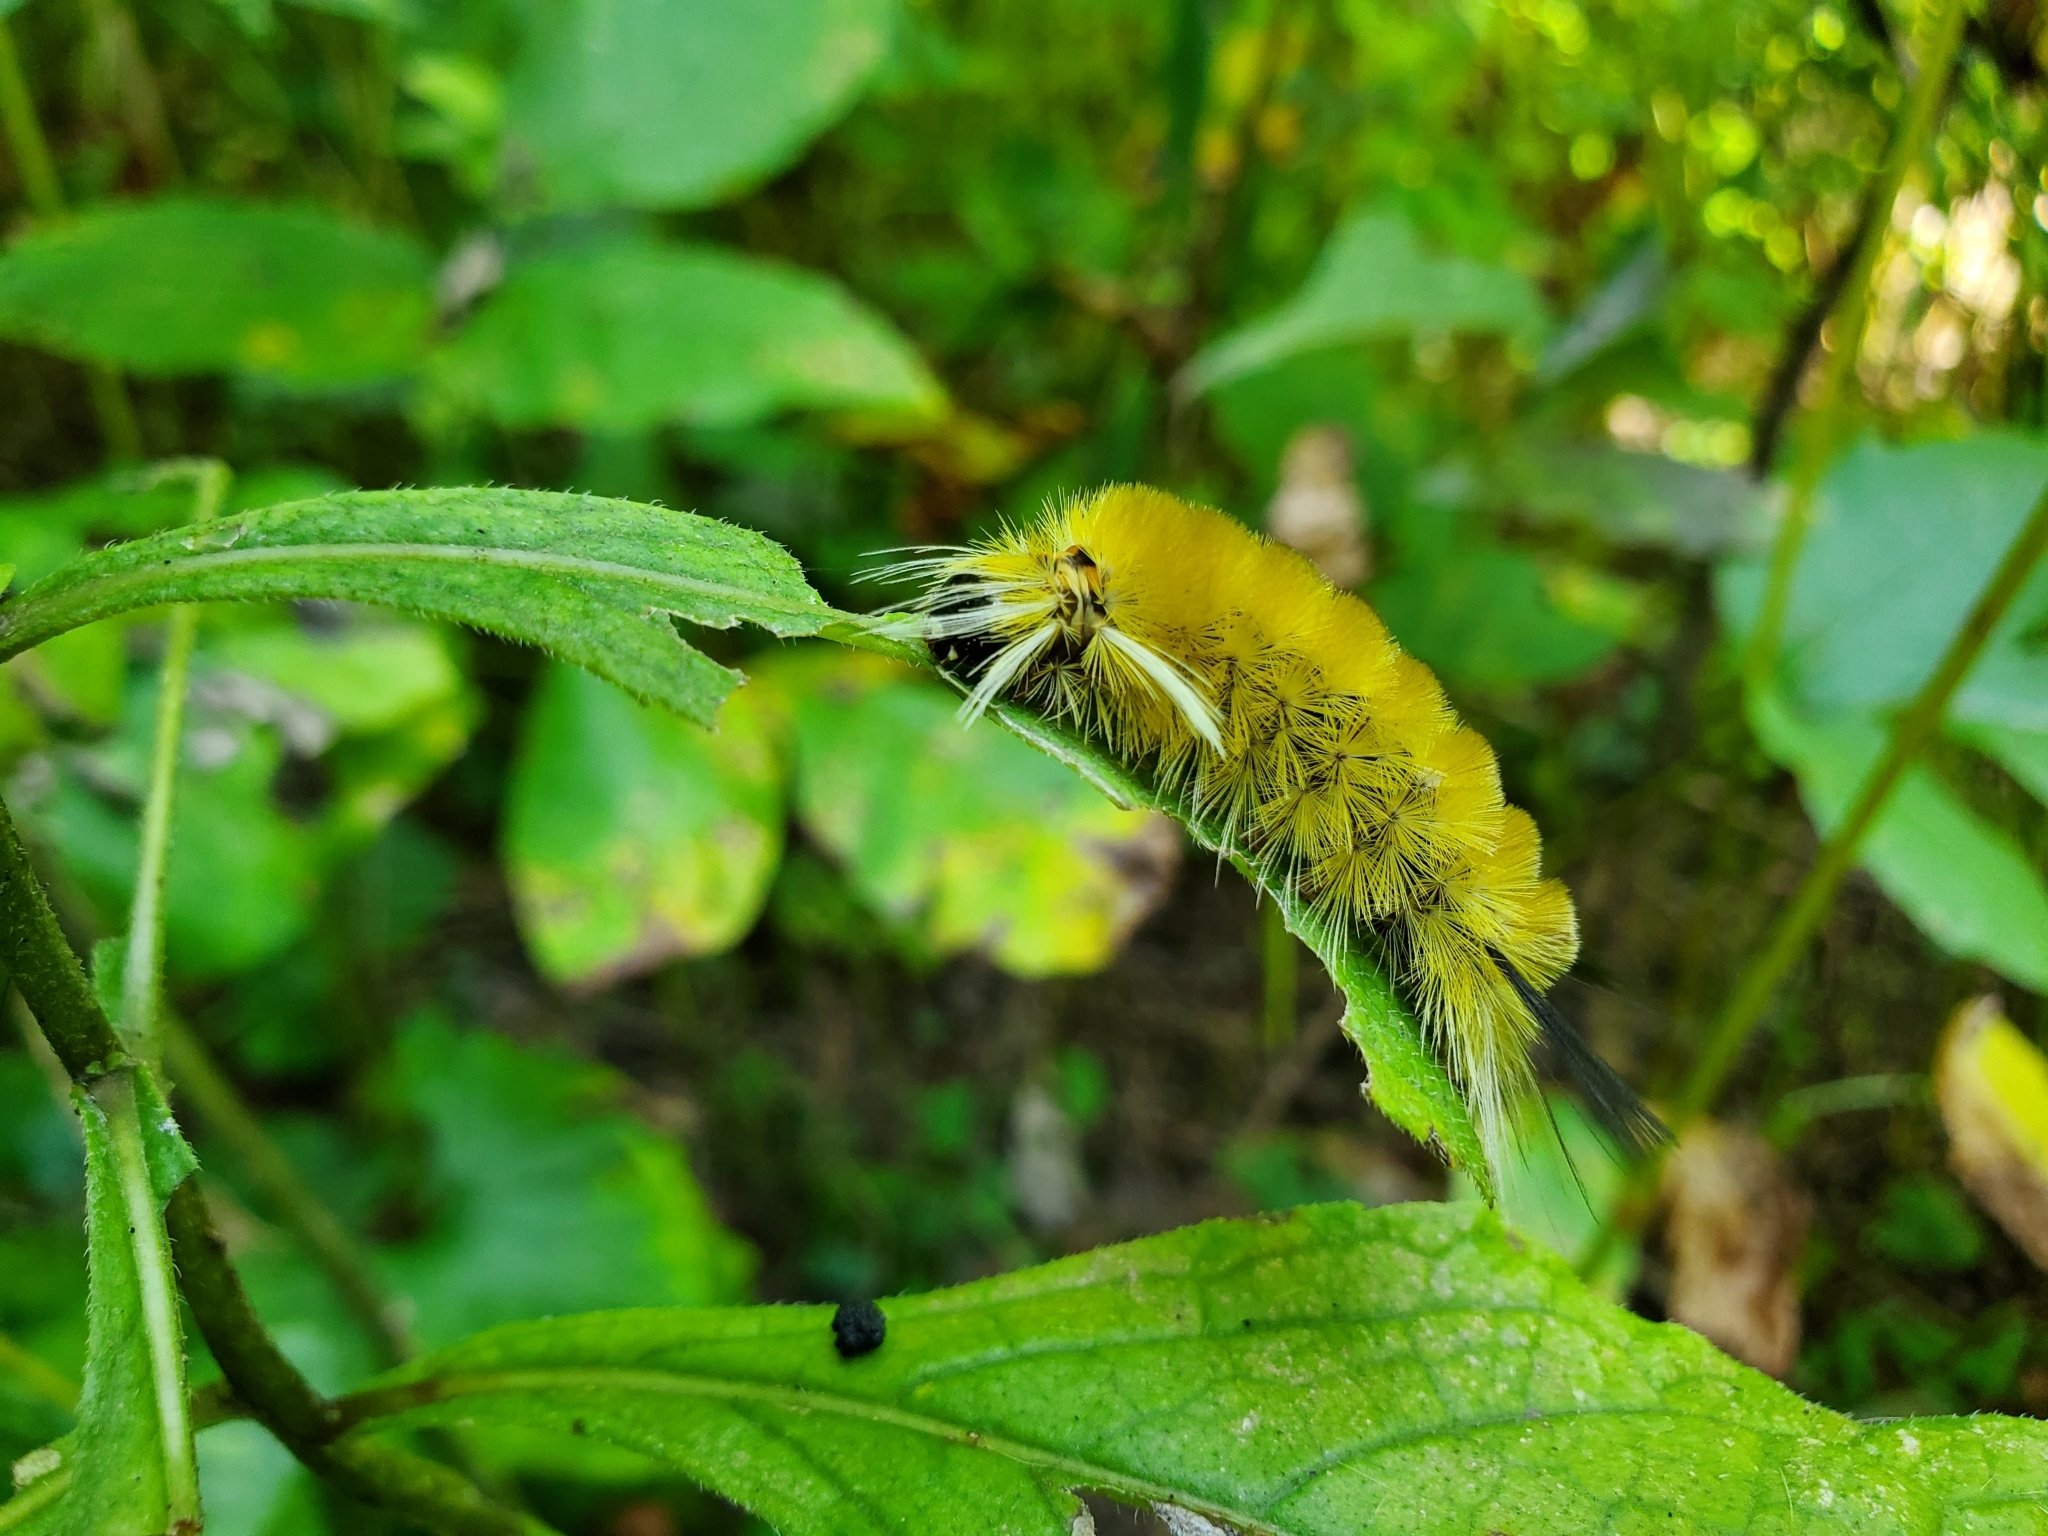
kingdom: Animalia
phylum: Arthropoda
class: Insecta
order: Lepidoptera
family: Erebidae
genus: Halysidota
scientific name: Halysidota tessellaris
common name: Banded tussock moth
